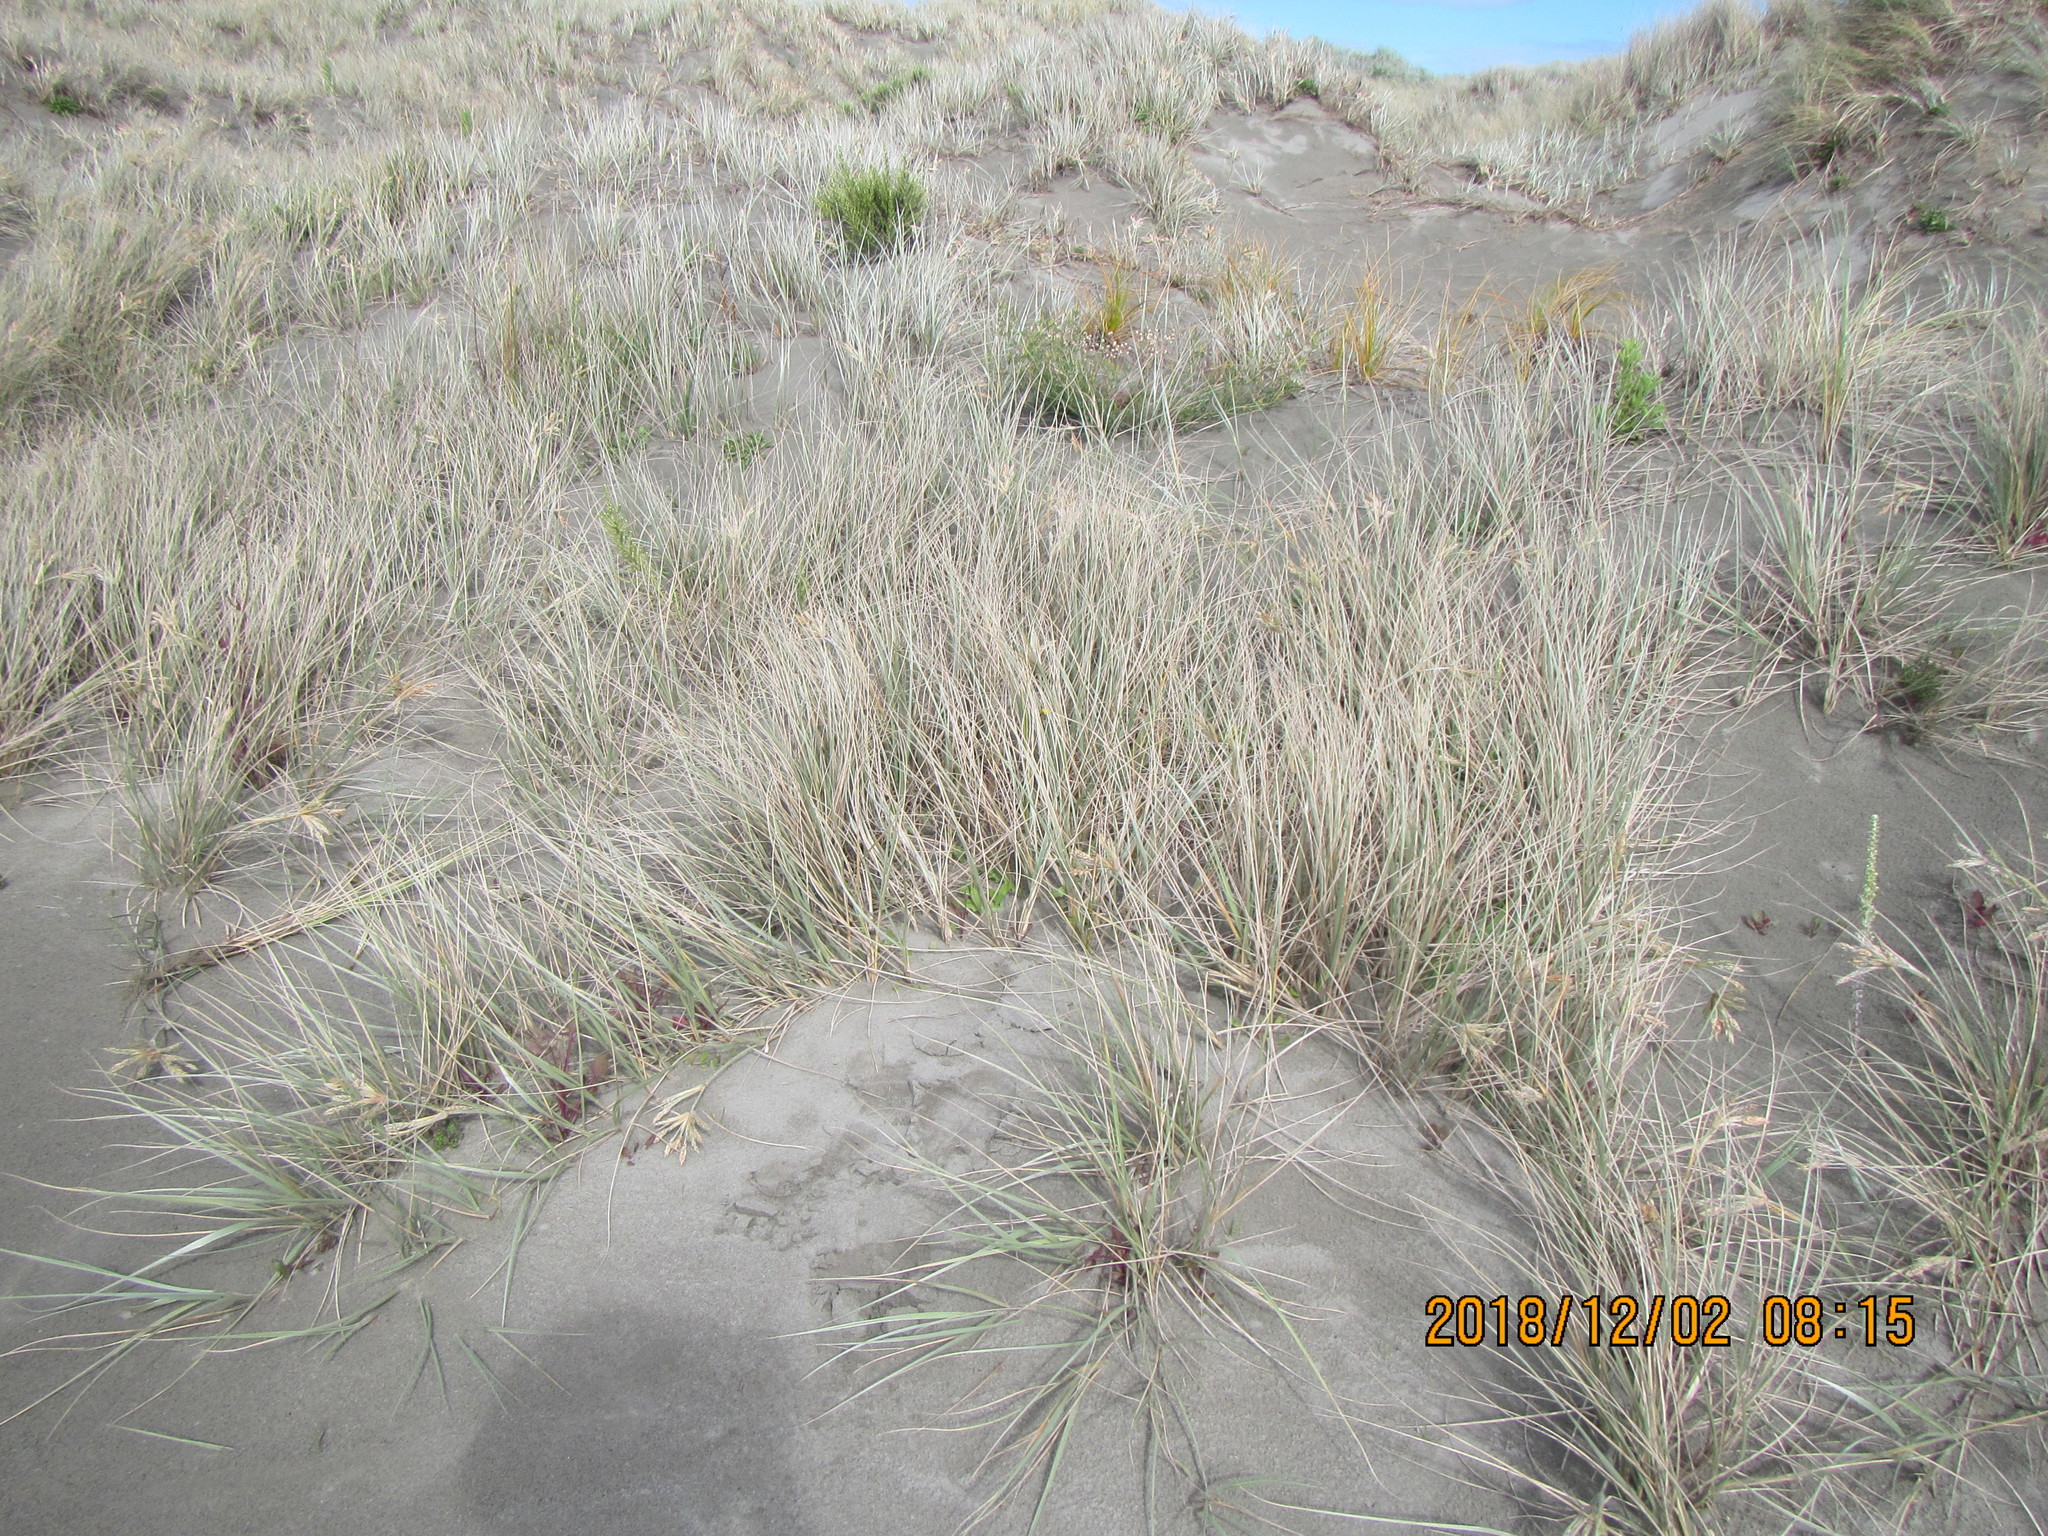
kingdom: Plantae
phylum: Tracheophyta
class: Liliopsida
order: Poales
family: Poaceae
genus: Spinifex
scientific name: Spinifex sericeus
